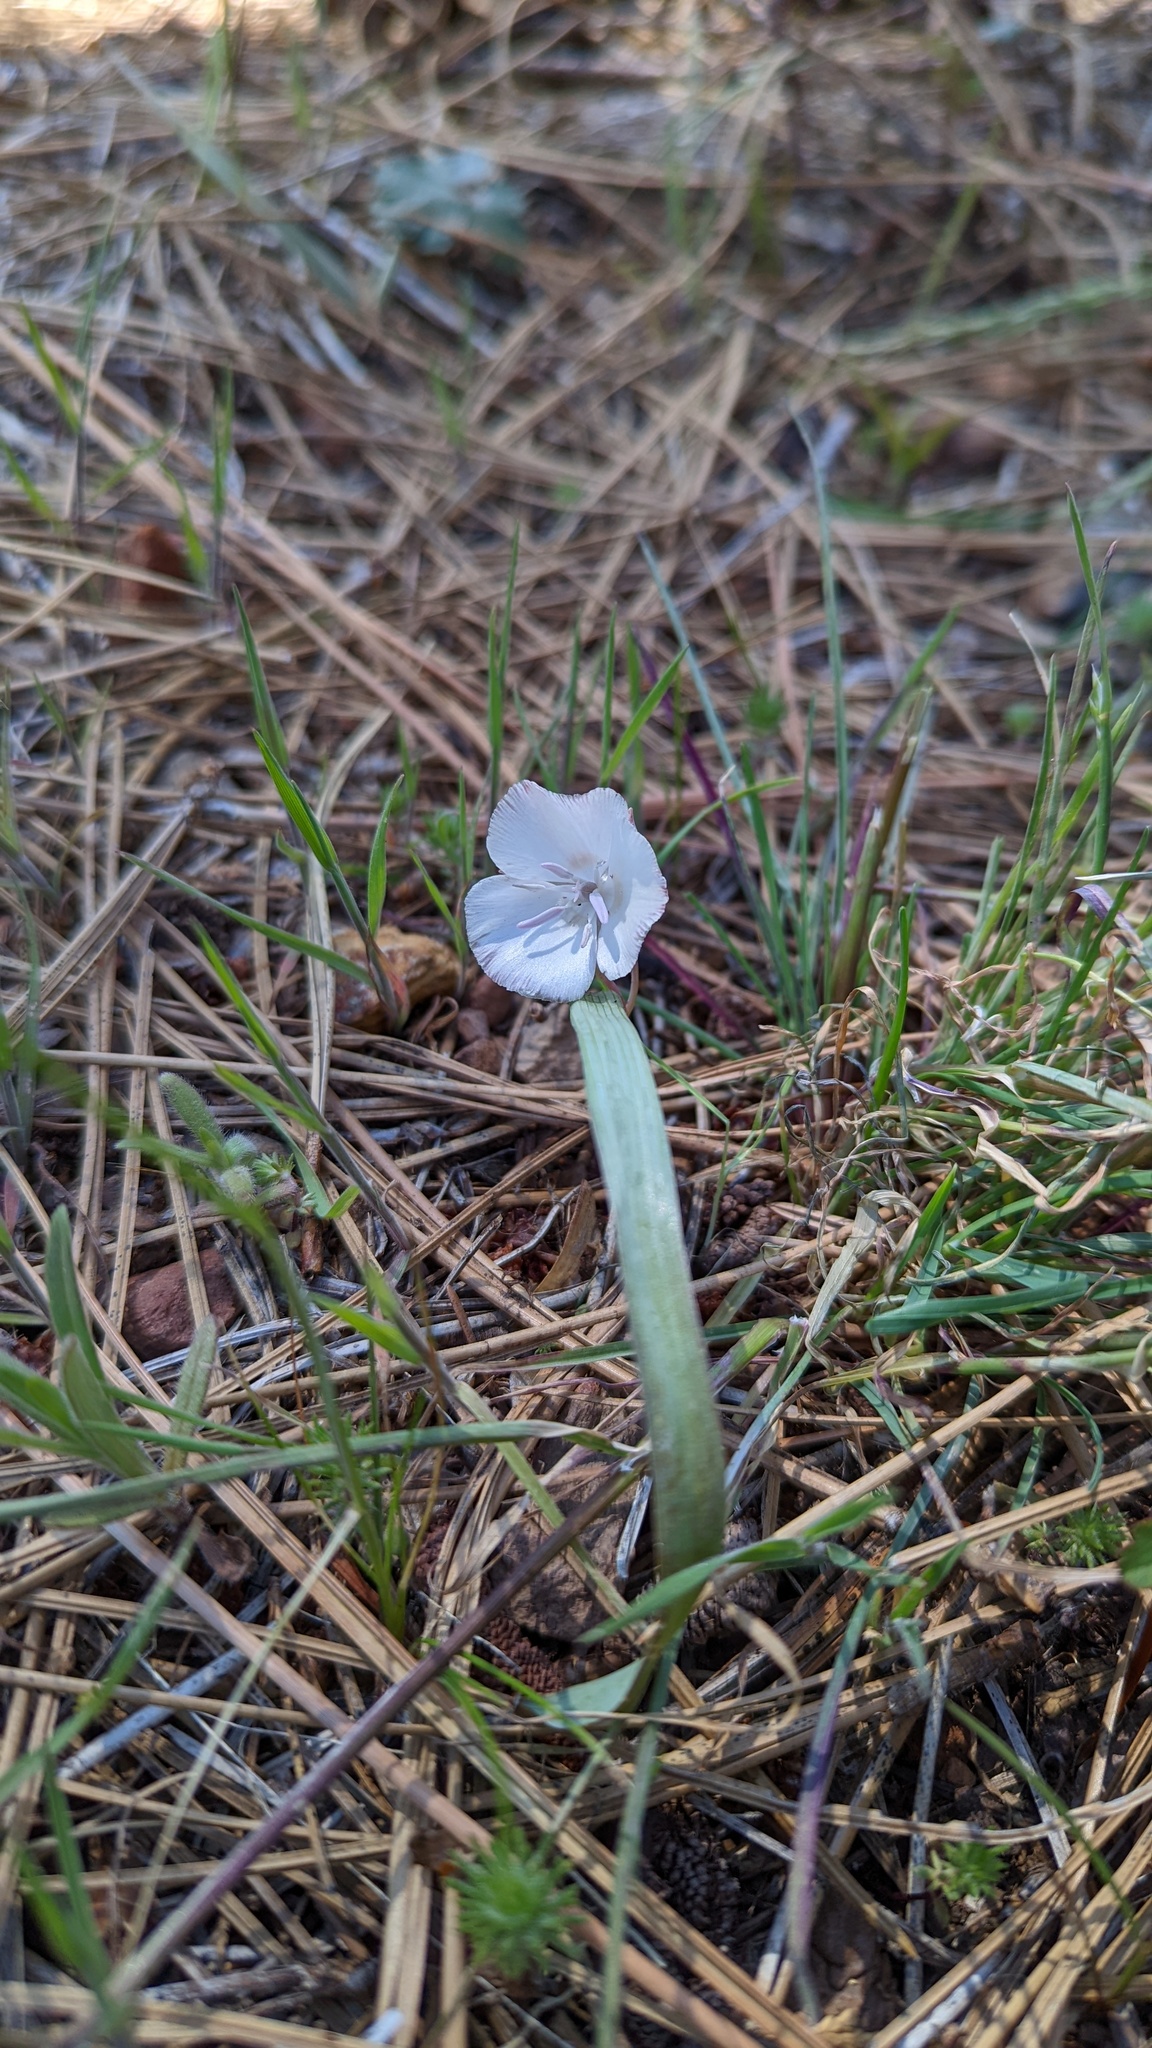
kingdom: Plantae
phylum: Tracheophyta
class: Liliopsida
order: Liliales
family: Liliaceae
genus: Calochortus
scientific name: Calochortus minimus
